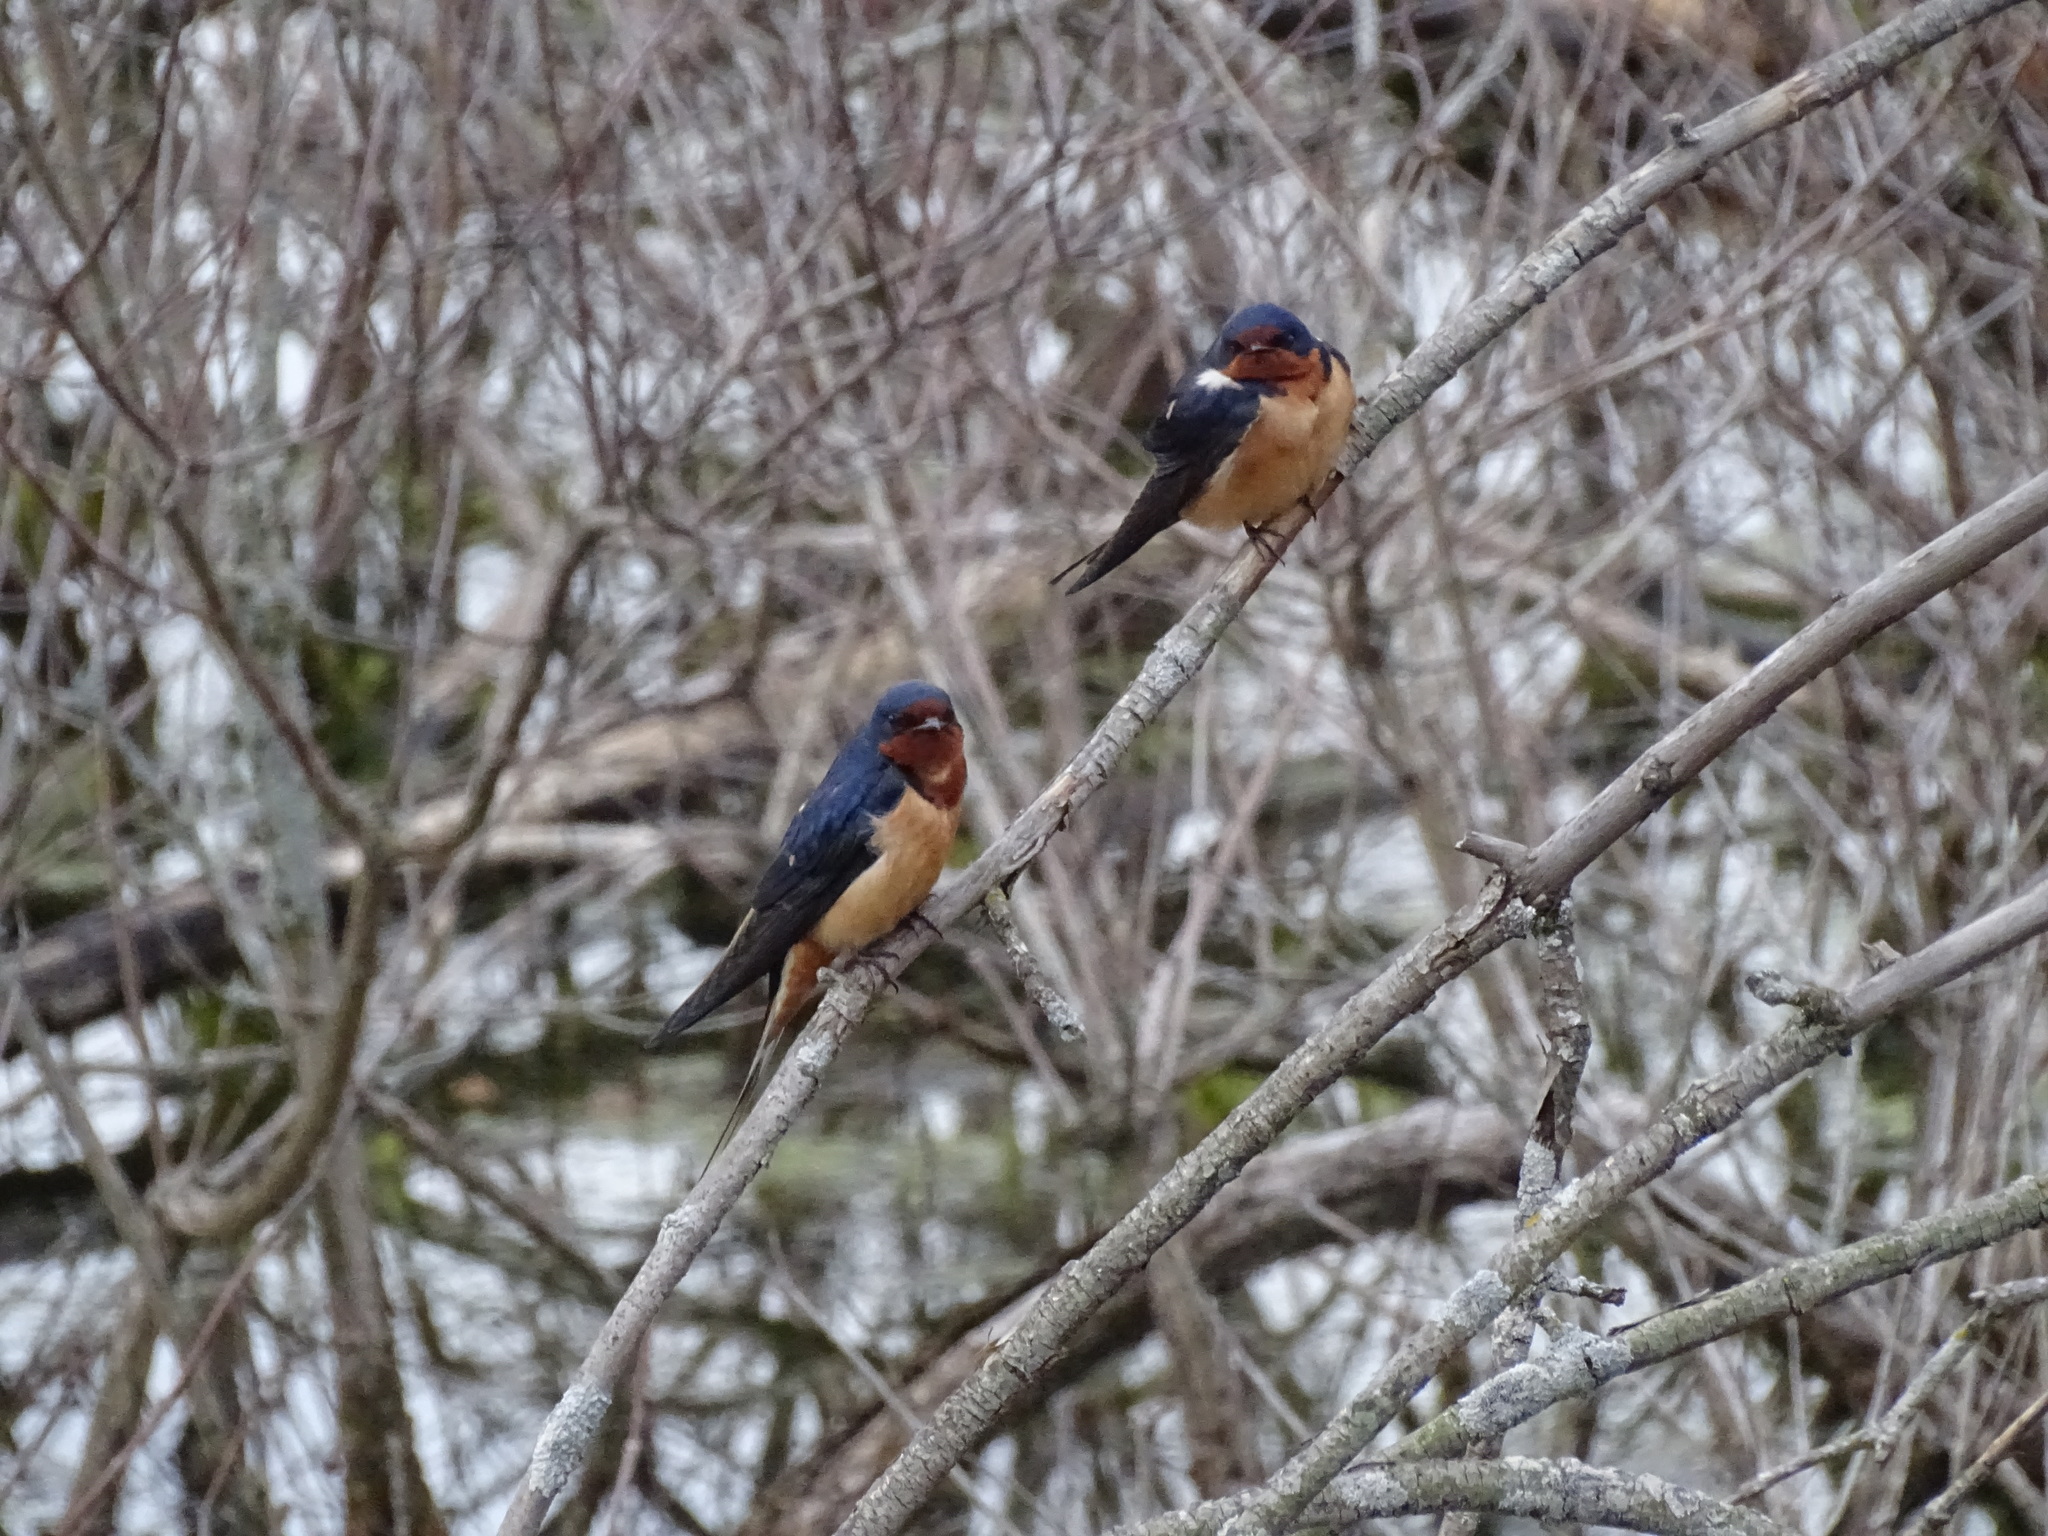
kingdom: Animalia
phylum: Chordata
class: Aves
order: Passeriformes
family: Hirundinidae
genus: Hirundo
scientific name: Hirundo rustica
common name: Barn swallow
